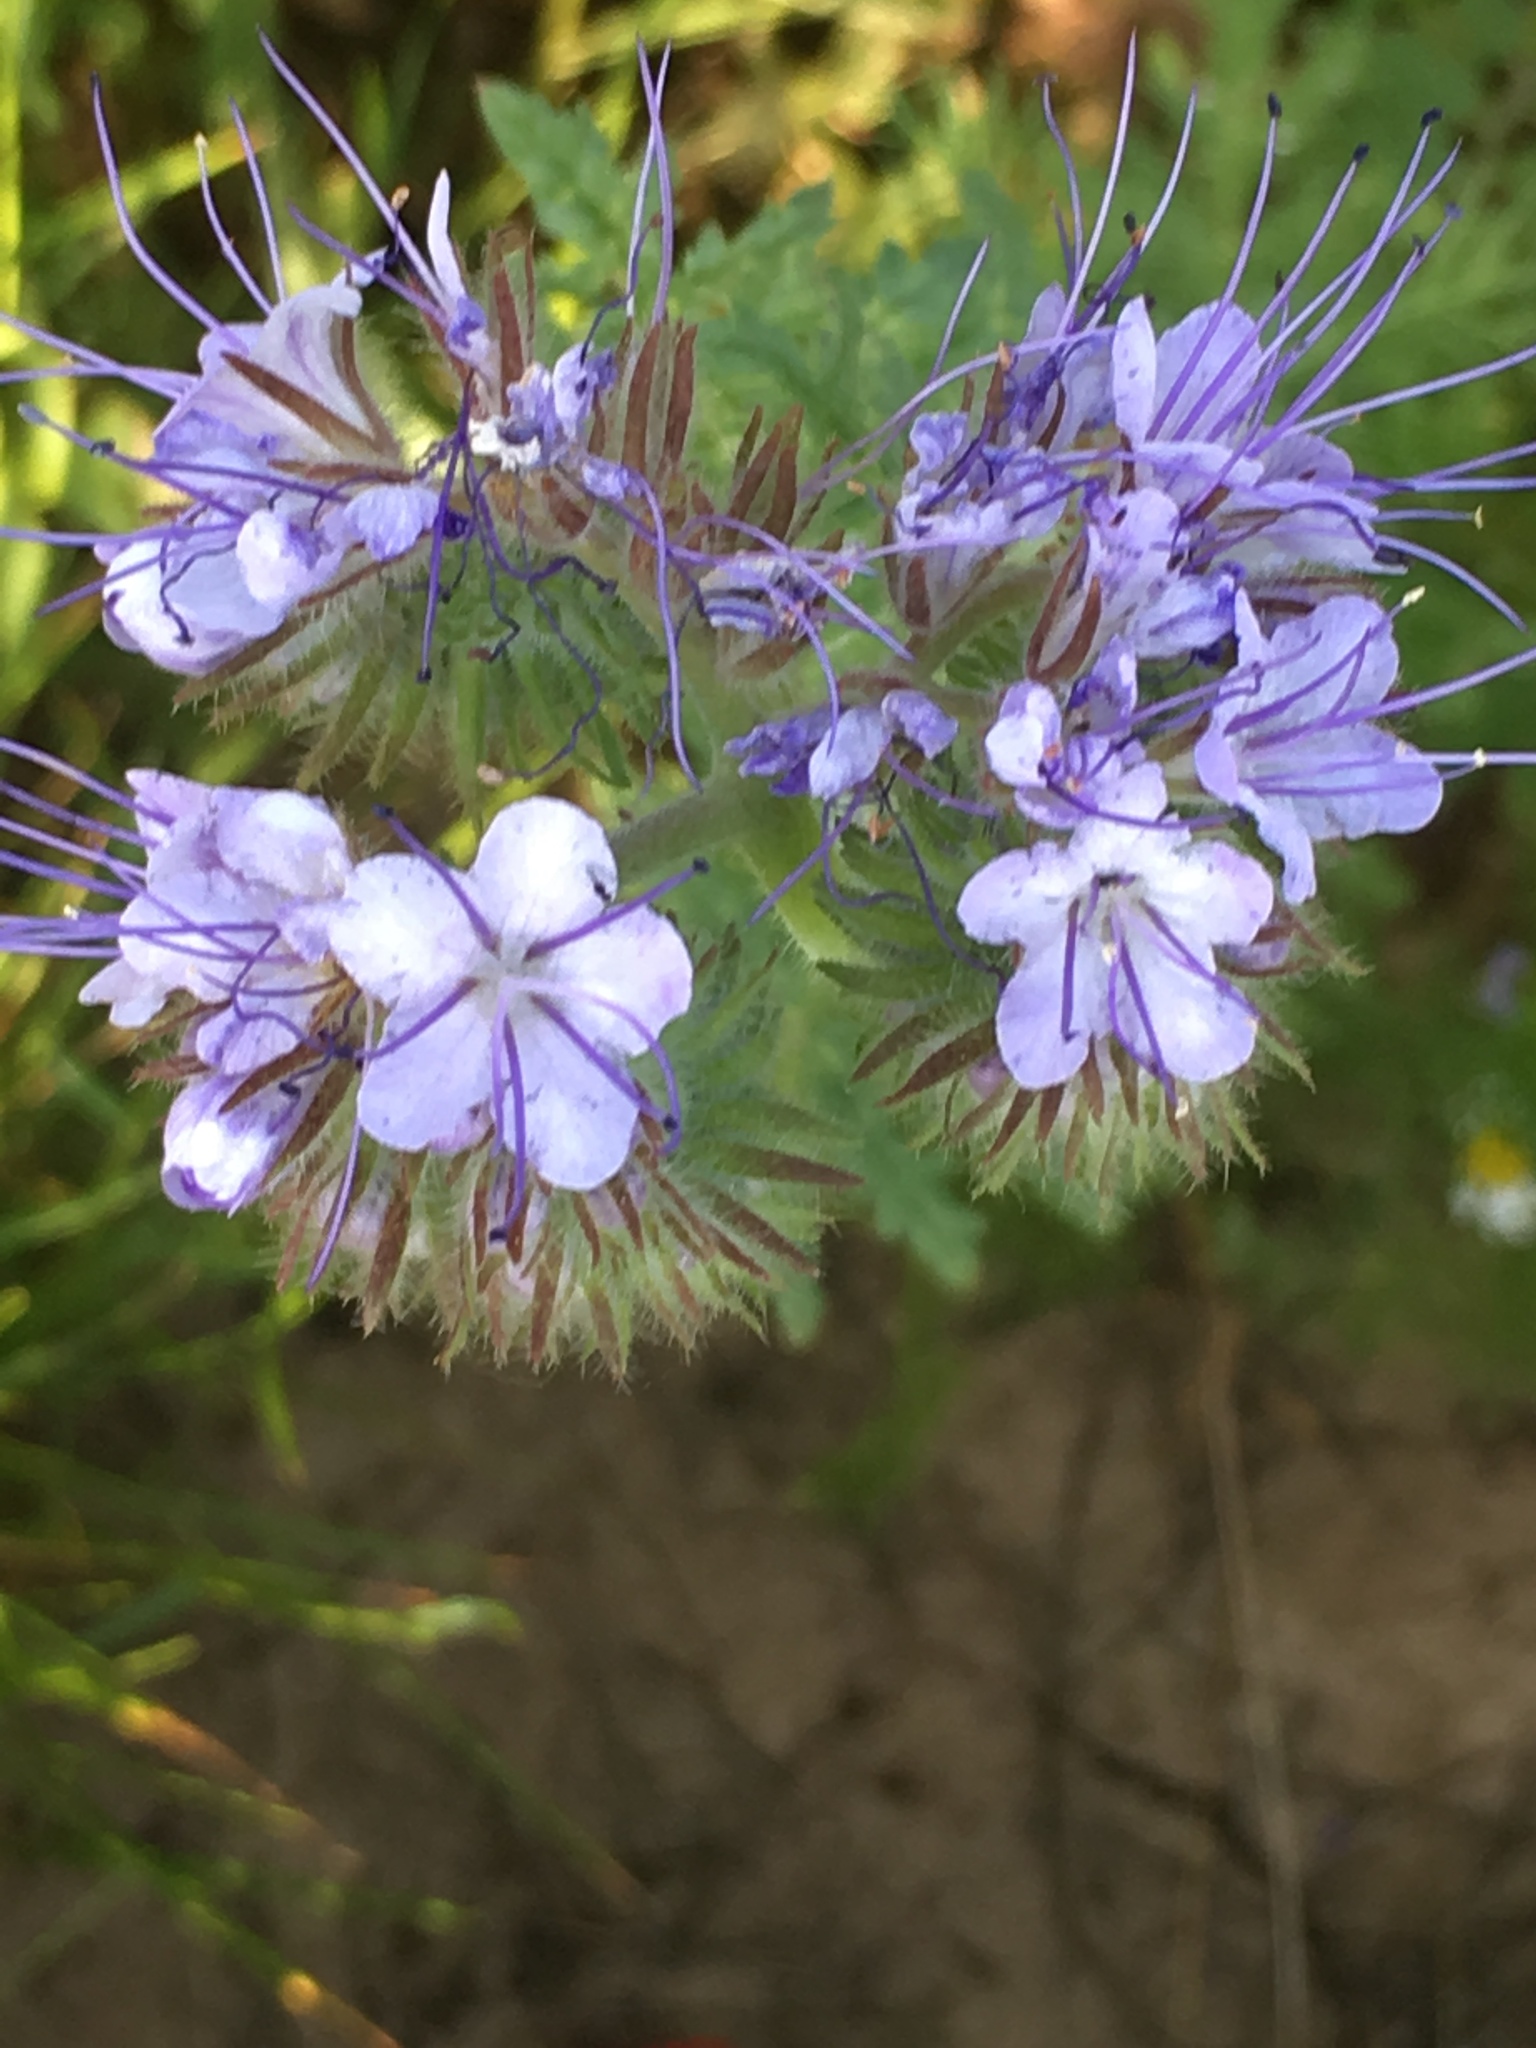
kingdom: Plantae
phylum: Tracheophyta
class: Magnoliopsida
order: Boraginales
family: Hydrophyllaceae
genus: Phacelia
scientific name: Phacelia tanacetifolia
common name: Phacelia
